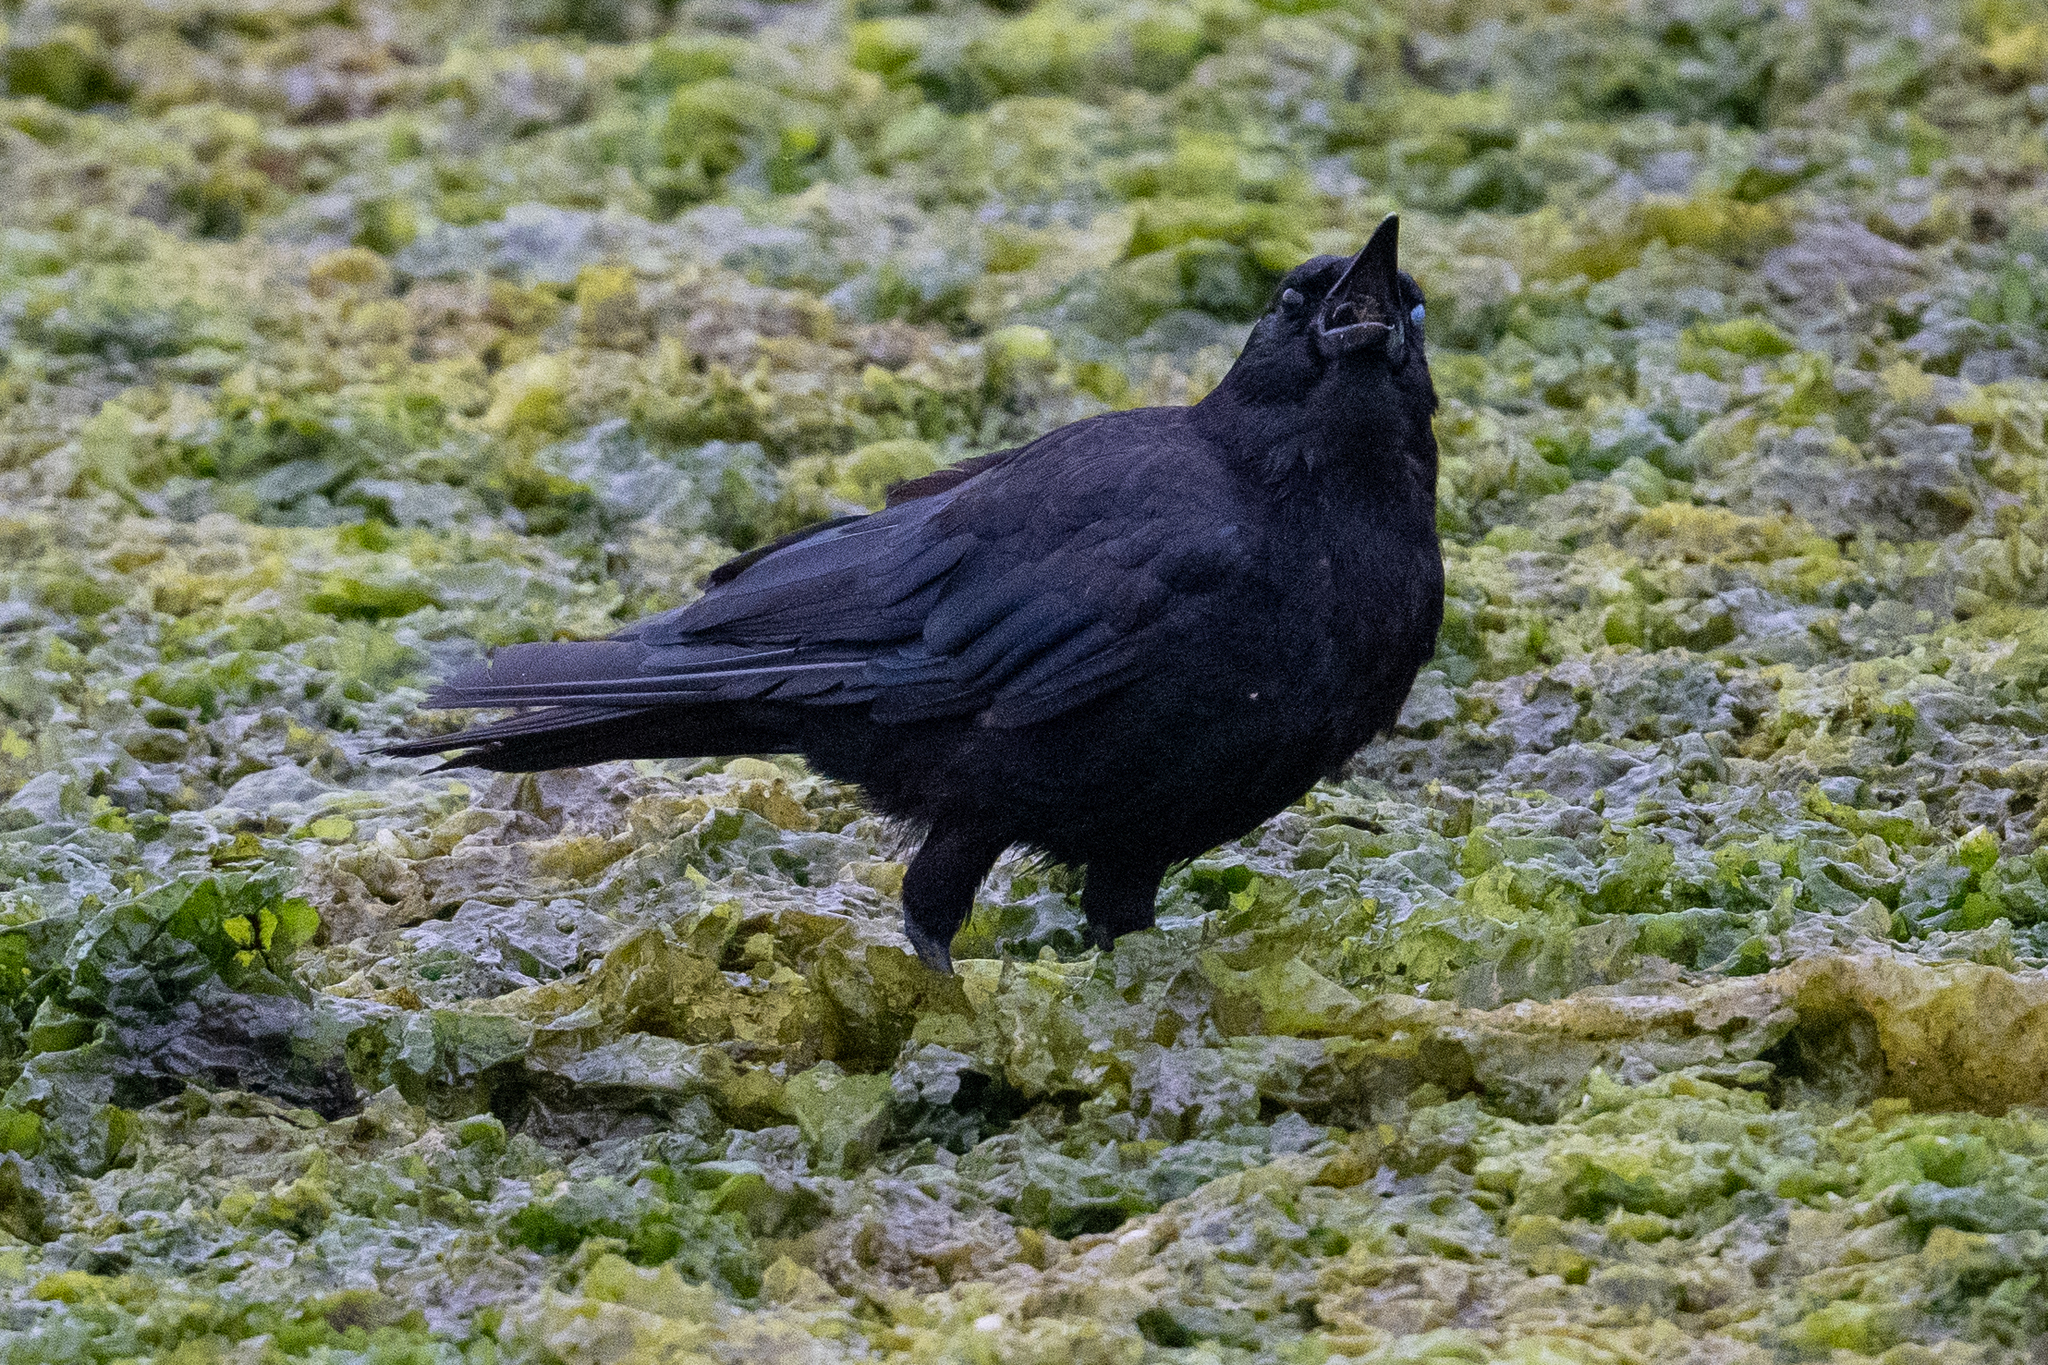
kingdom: Animalia
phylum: Chordata
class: Aves
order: Passeriformes
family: Corvidae
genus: Corvus
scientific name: Corvus brachyrhynchos
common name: American crow
